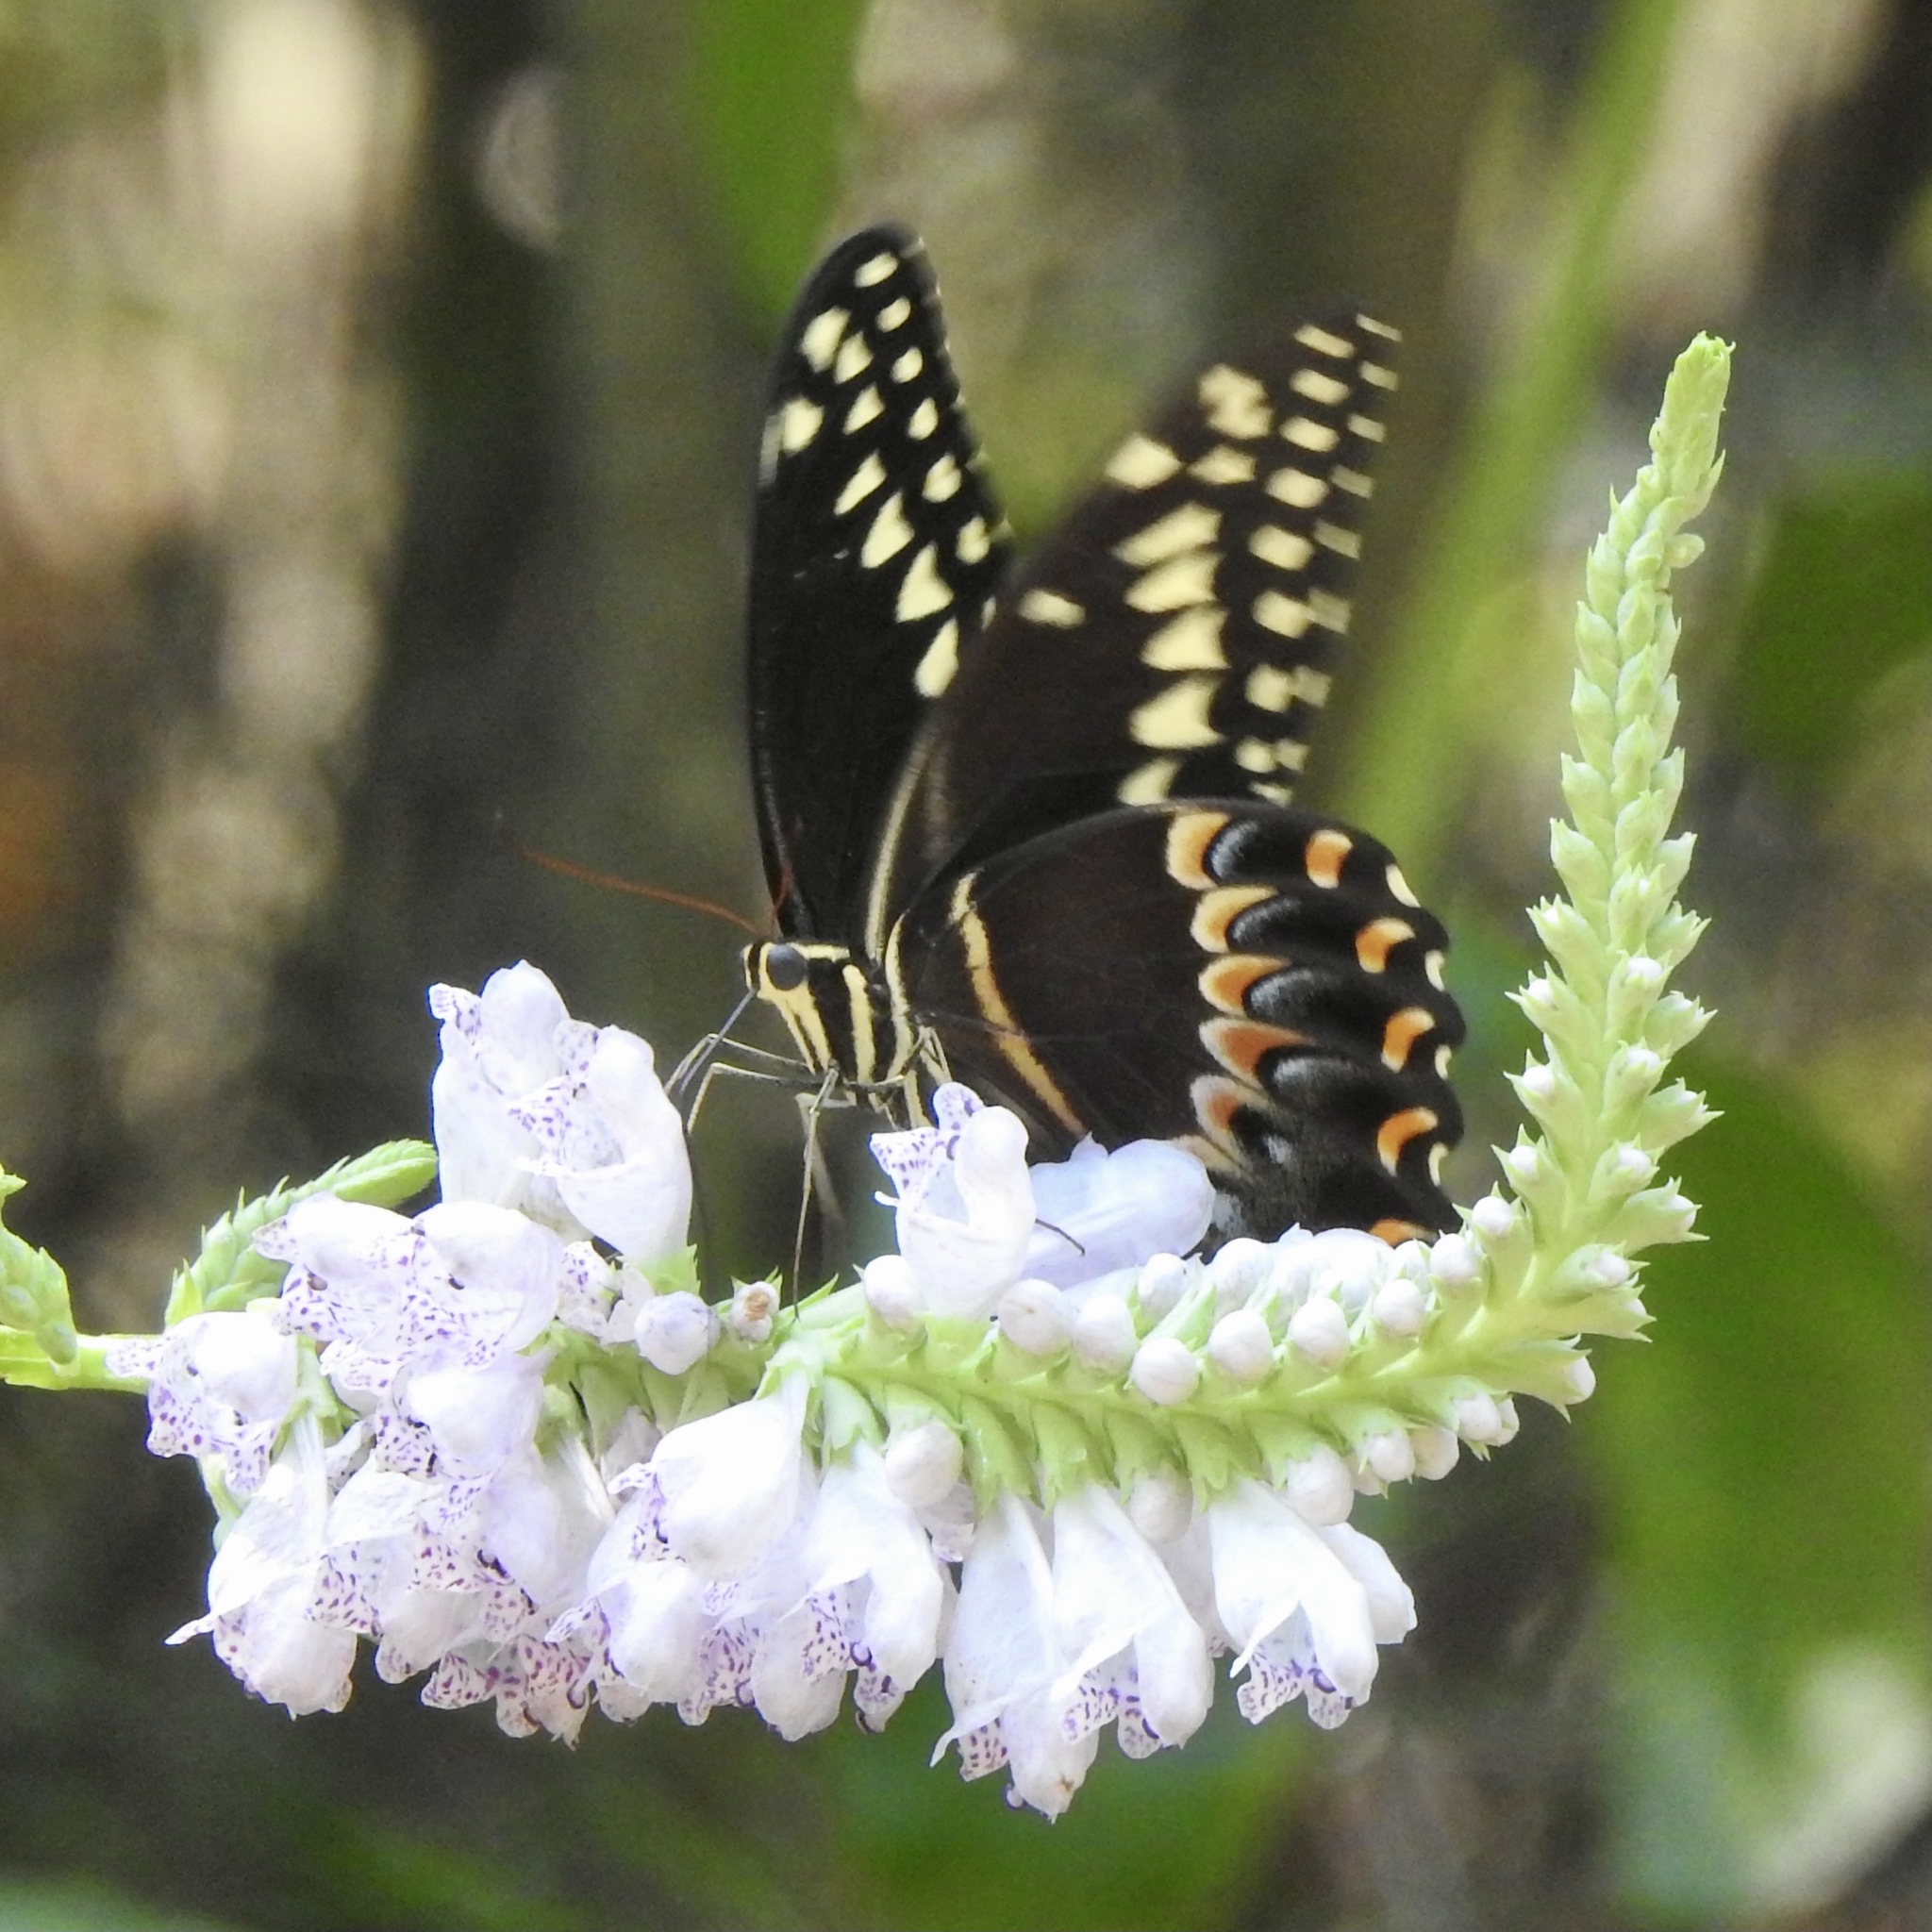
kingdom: Animalia
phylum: Arthropoda
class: Insecta
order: Lepidoptera
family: Papilionidae
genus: Papilio
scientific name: Papilio palamedes
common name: Palamedes swallowtail
